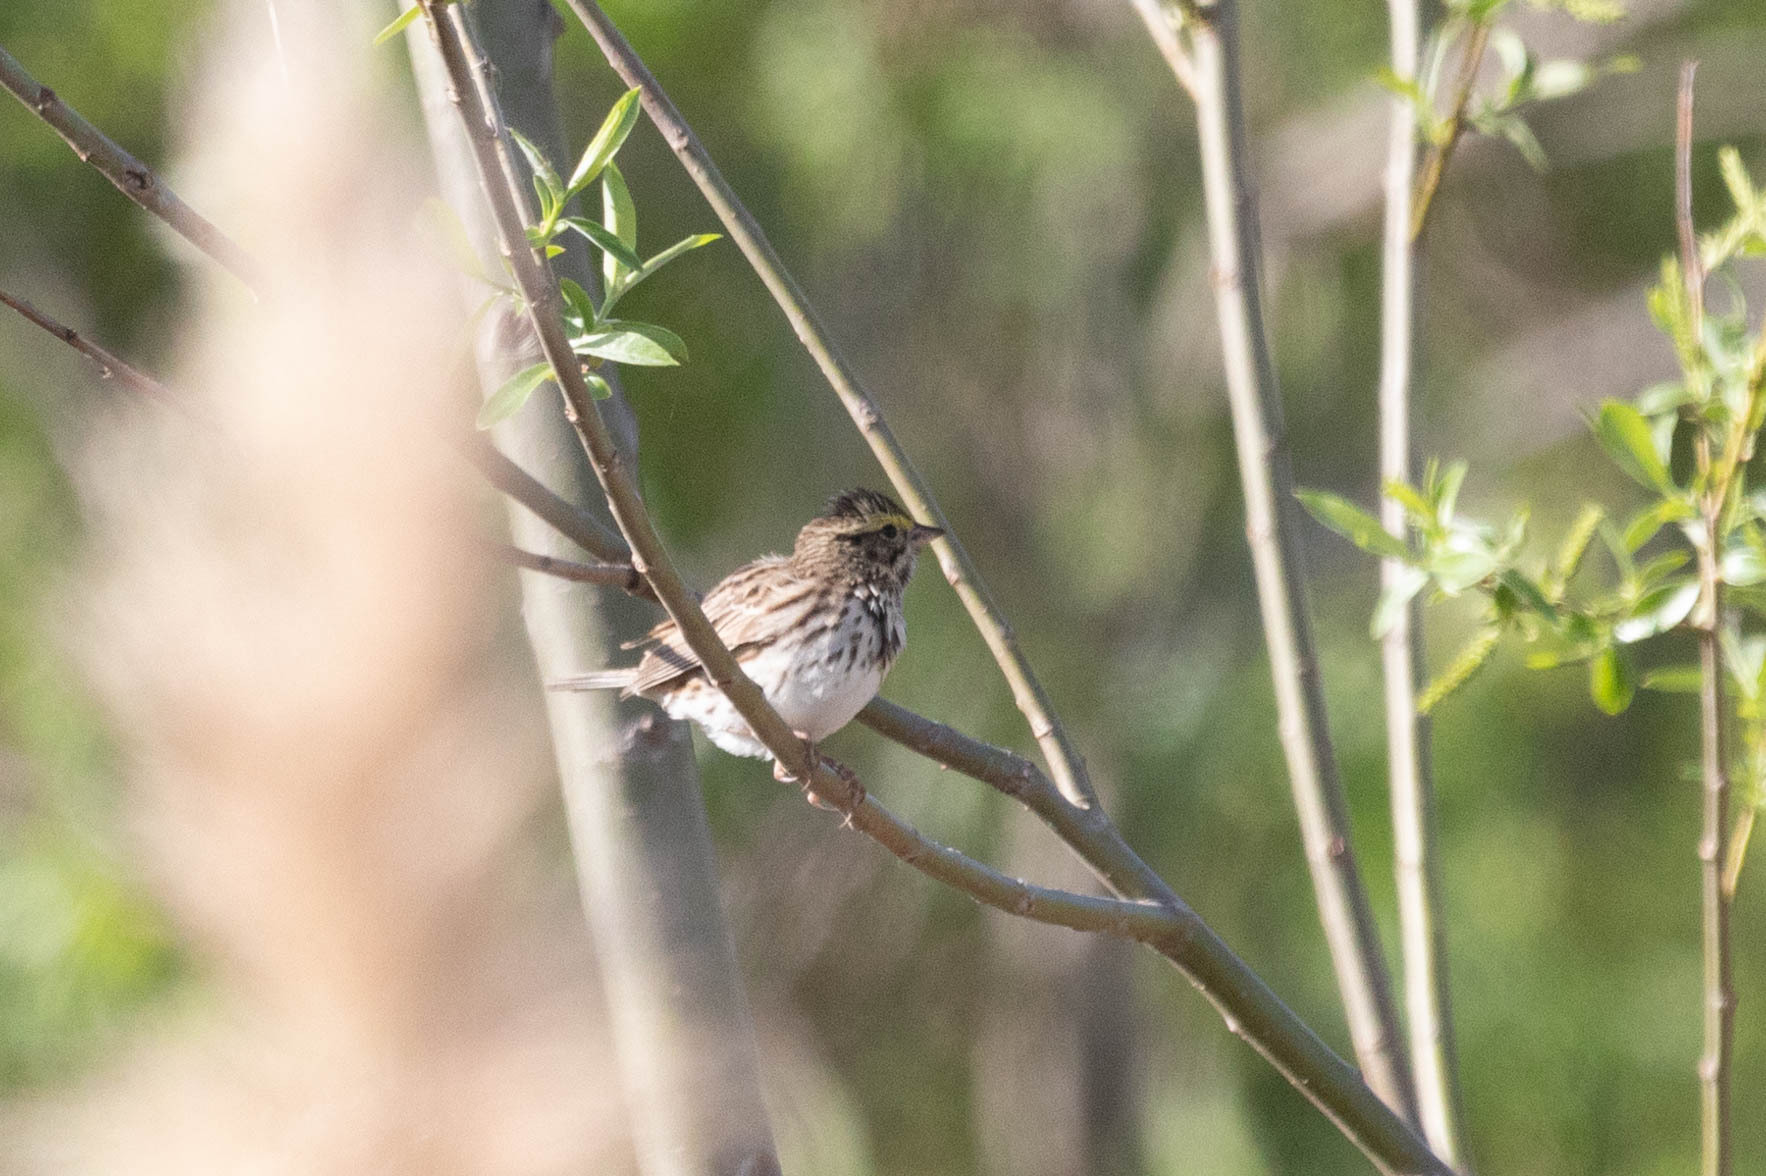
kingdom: Animalia
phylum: Chordata
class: Aves
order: Passeriformes
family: Passerellidae
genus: Passerculus
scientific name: Passerculus sandwichensis
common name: Savannah sparrow
